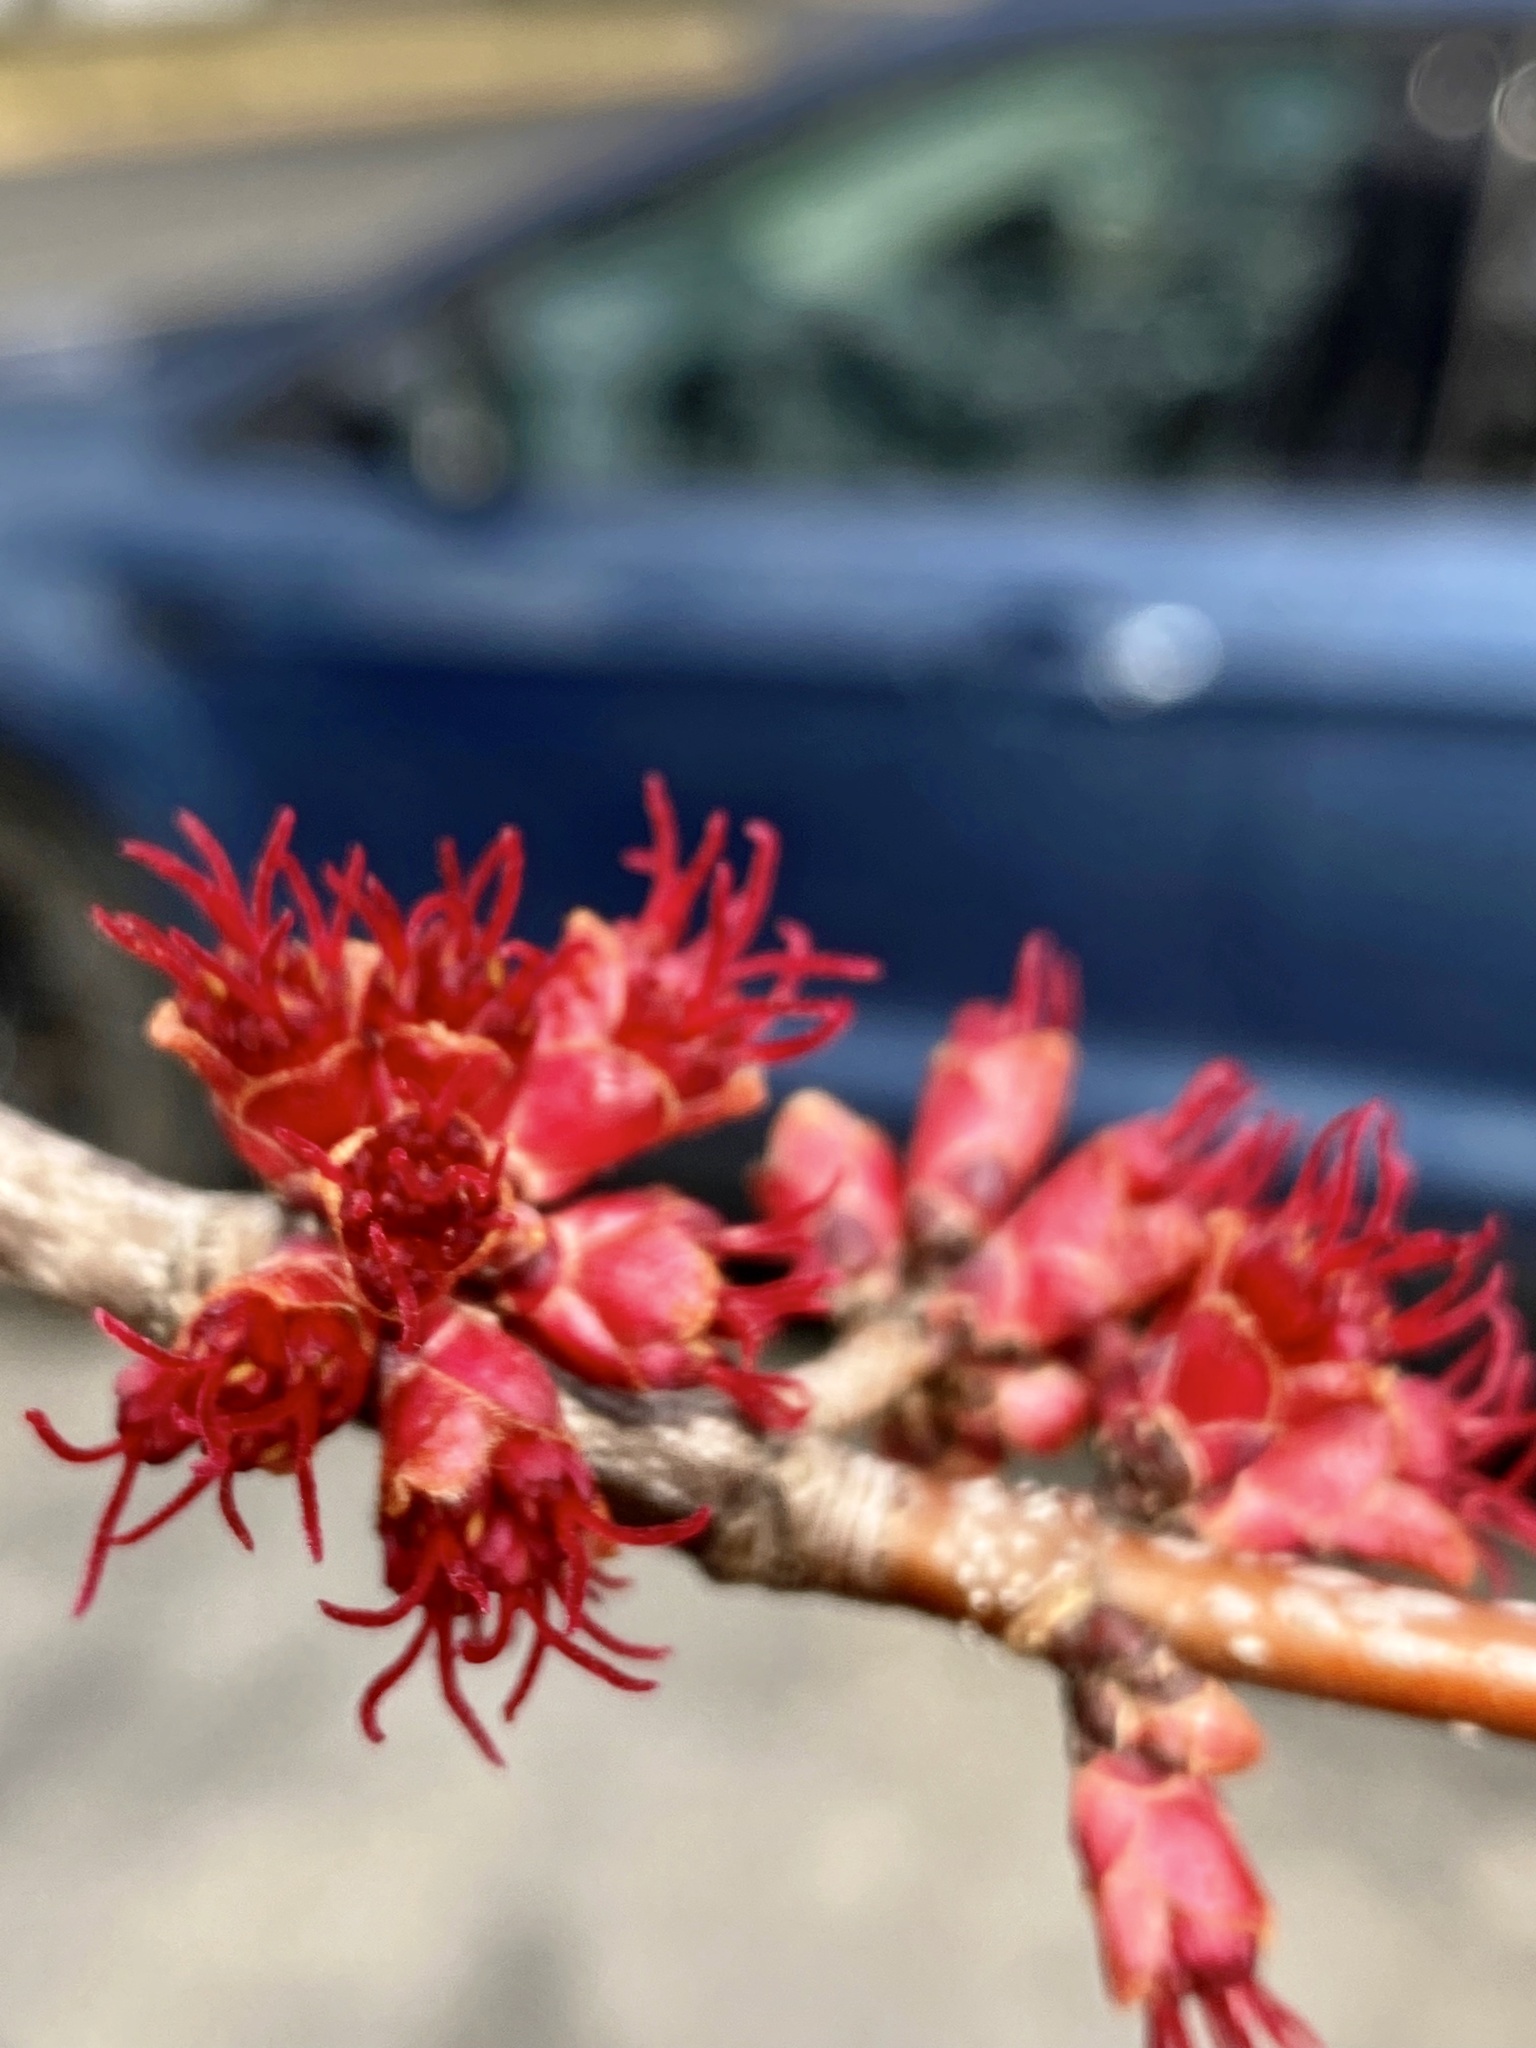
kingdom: Plantae
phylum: Tracheophyta
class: Magnoliopsida
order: Sapindales
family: Sapindaceae
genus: Acer
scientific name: Acer rubrum
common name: Red maple
